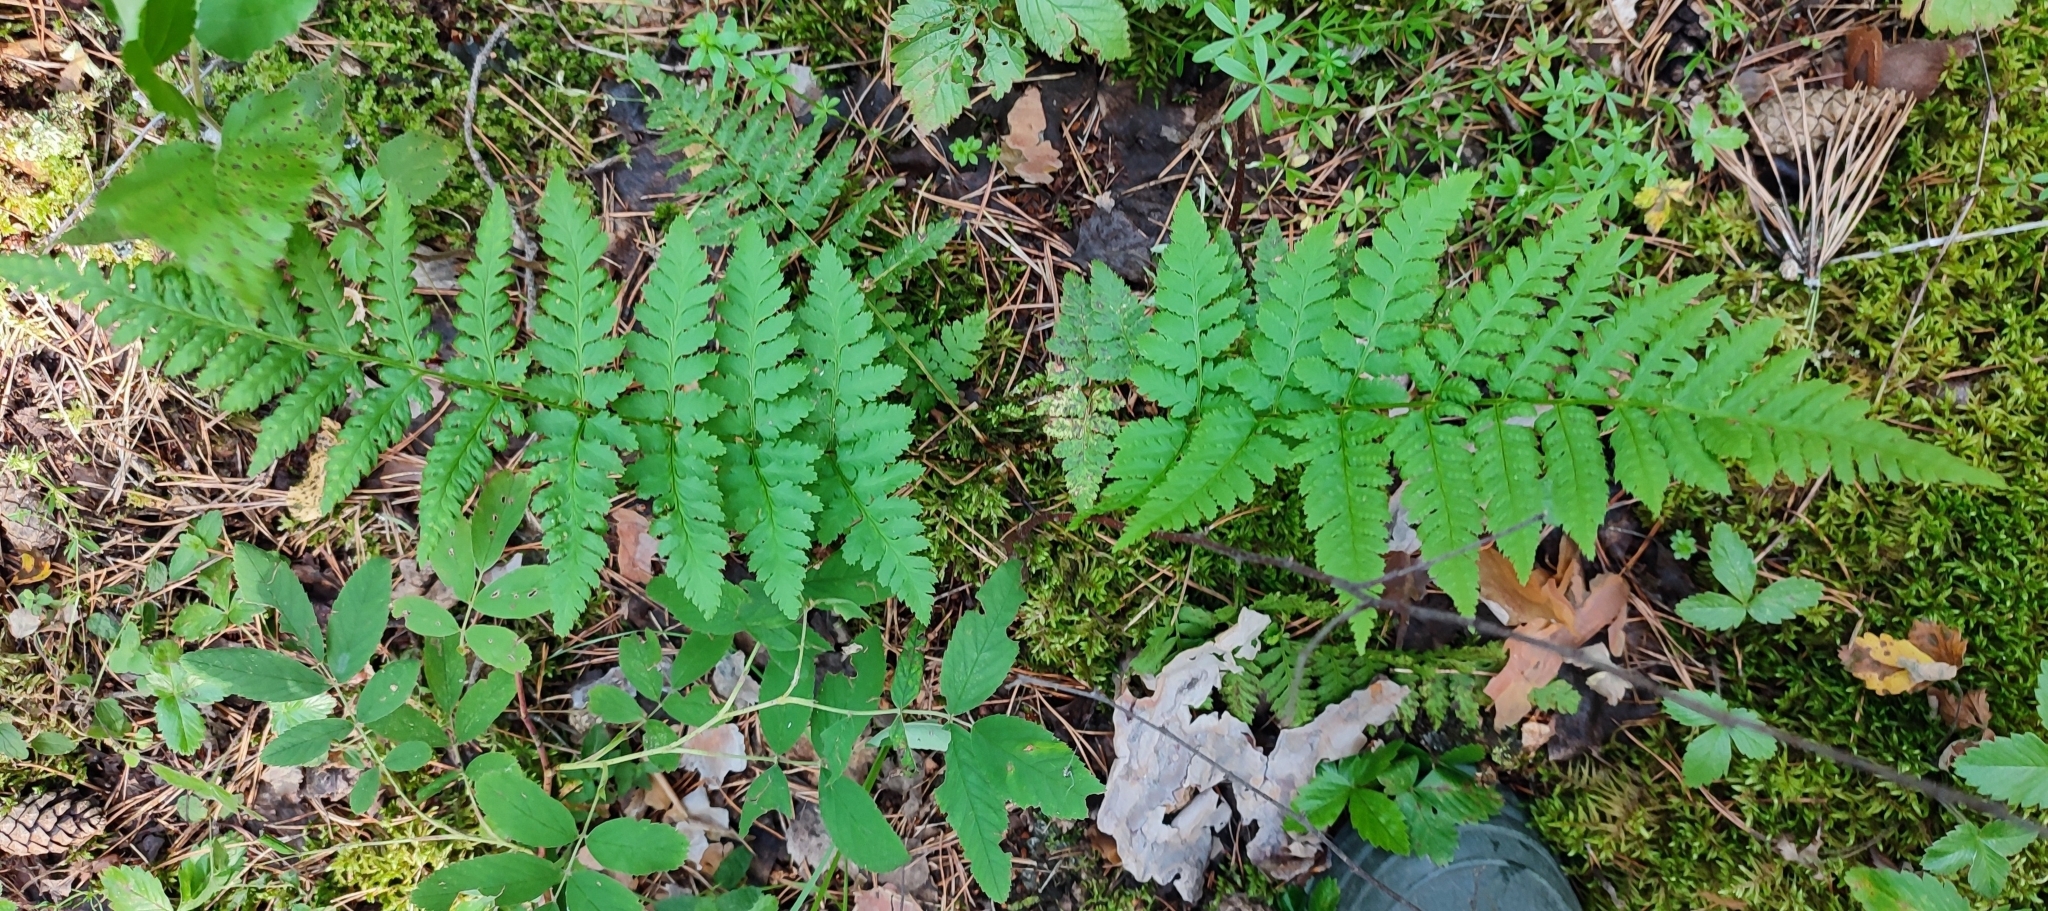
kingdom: Plantae
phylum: Tracheophyta
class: Polypodiopsida
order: Polypodiales
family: Dryopteridaceae
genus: Dryopteris
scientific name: Dryopteris carthusiana
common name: Narrow buckler-fern
